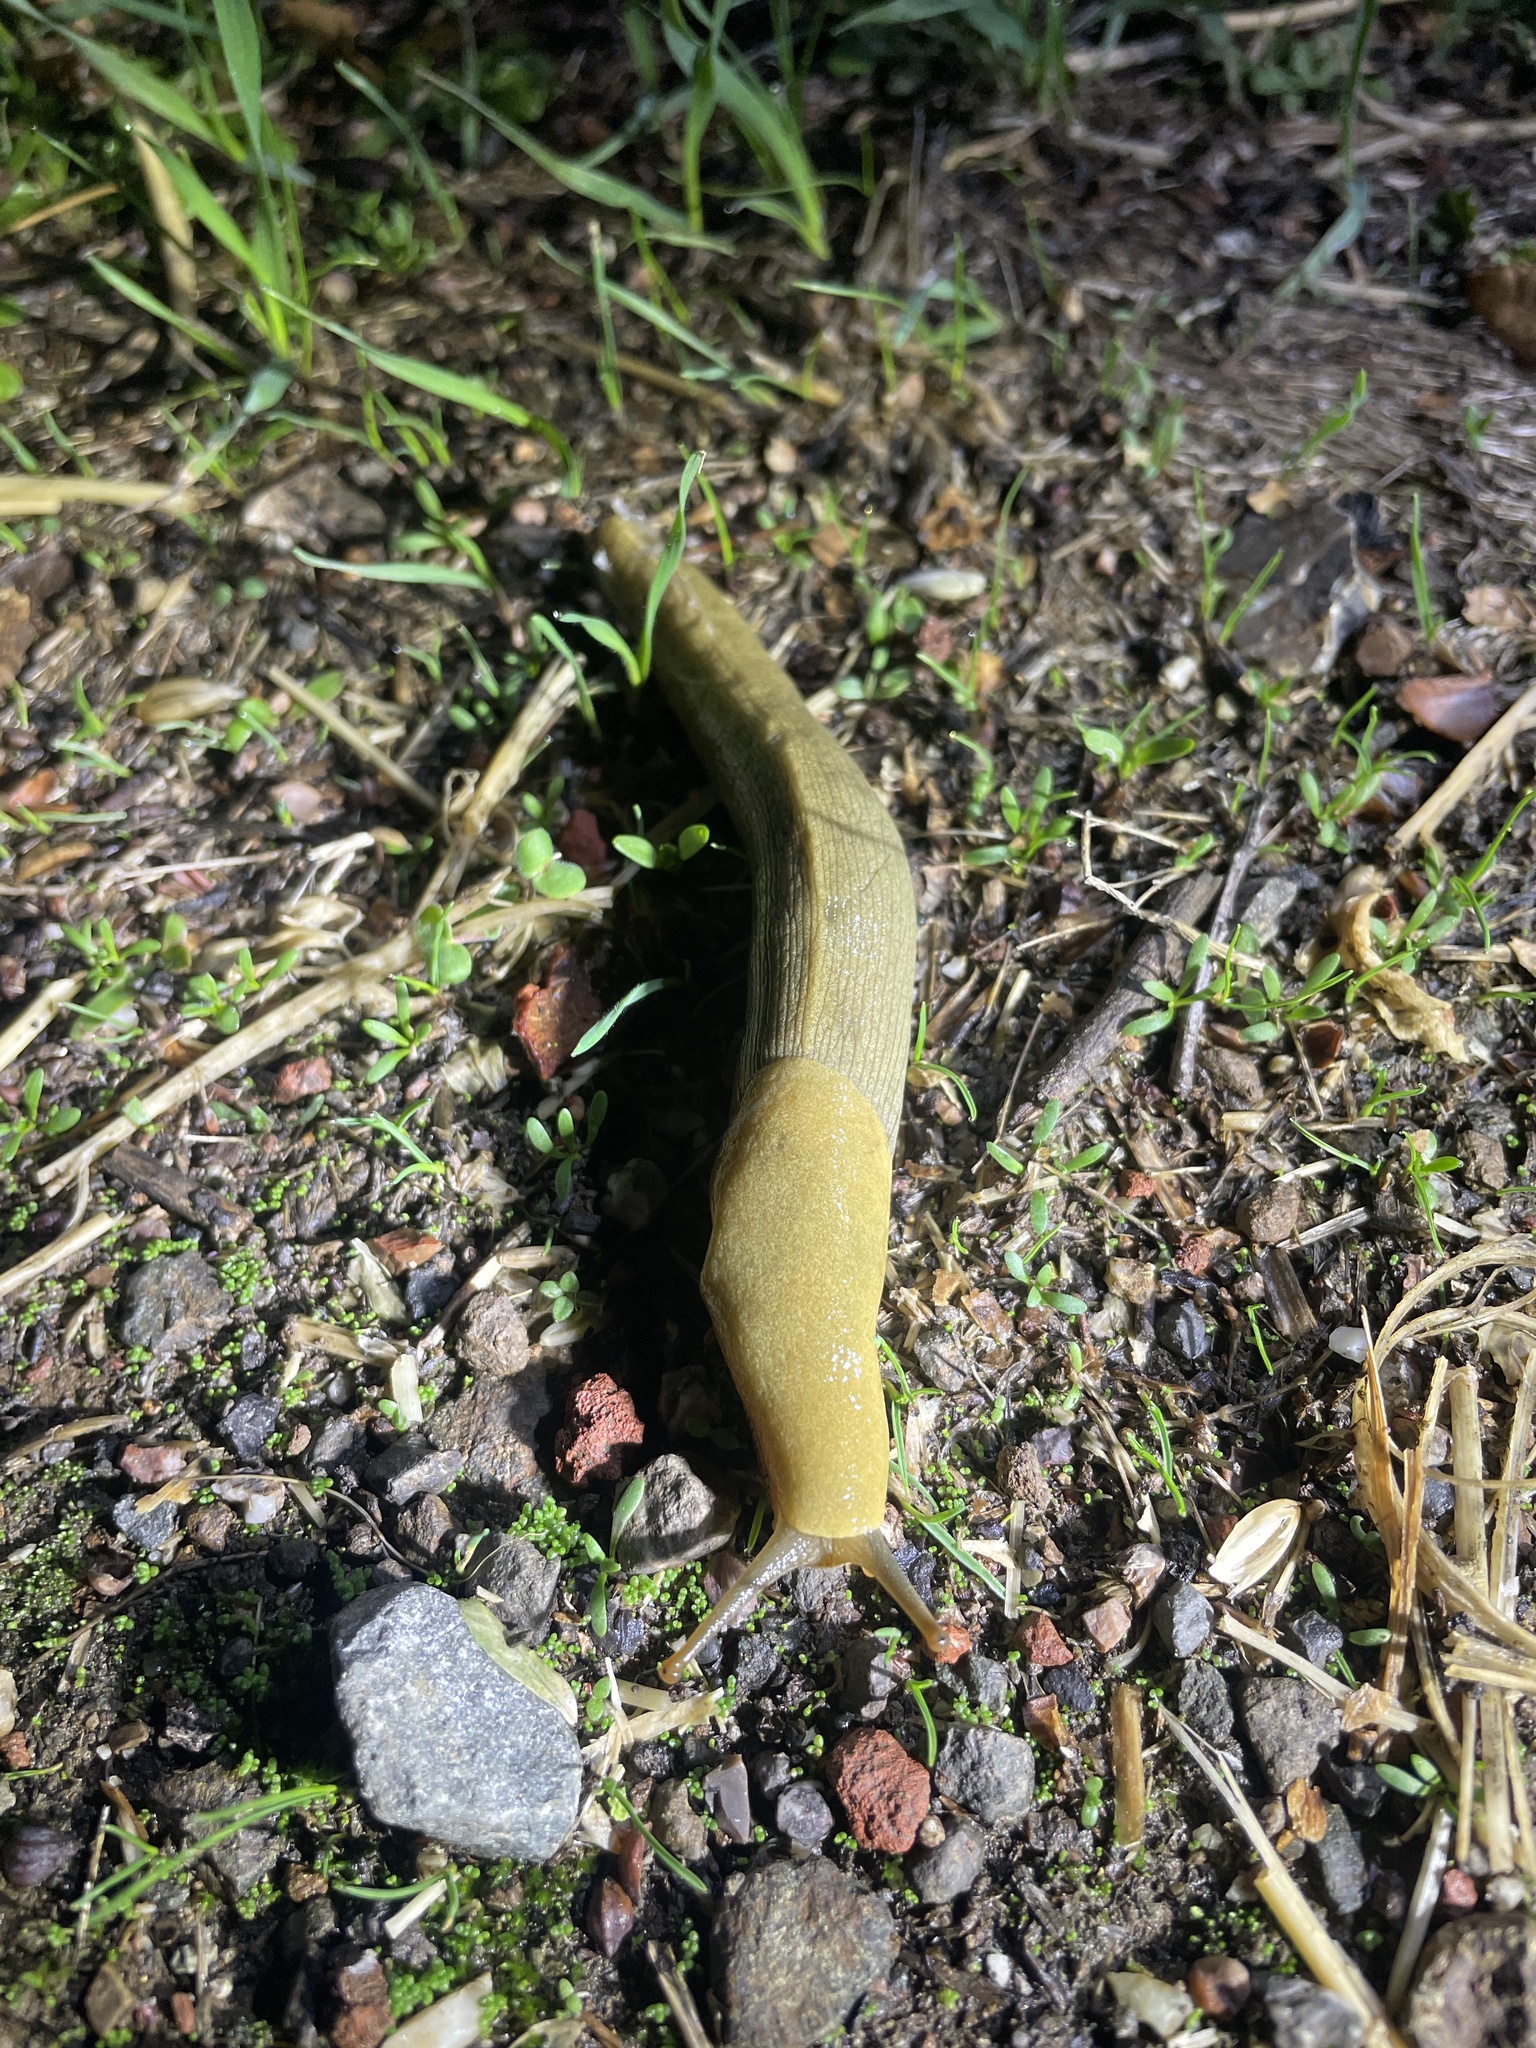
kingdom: Animalia
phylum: Mollusca
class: Gastropoda
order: Stylommatophora
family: Ariolimacidae
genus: Ariolimax
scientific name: Ariolimax buttoni
